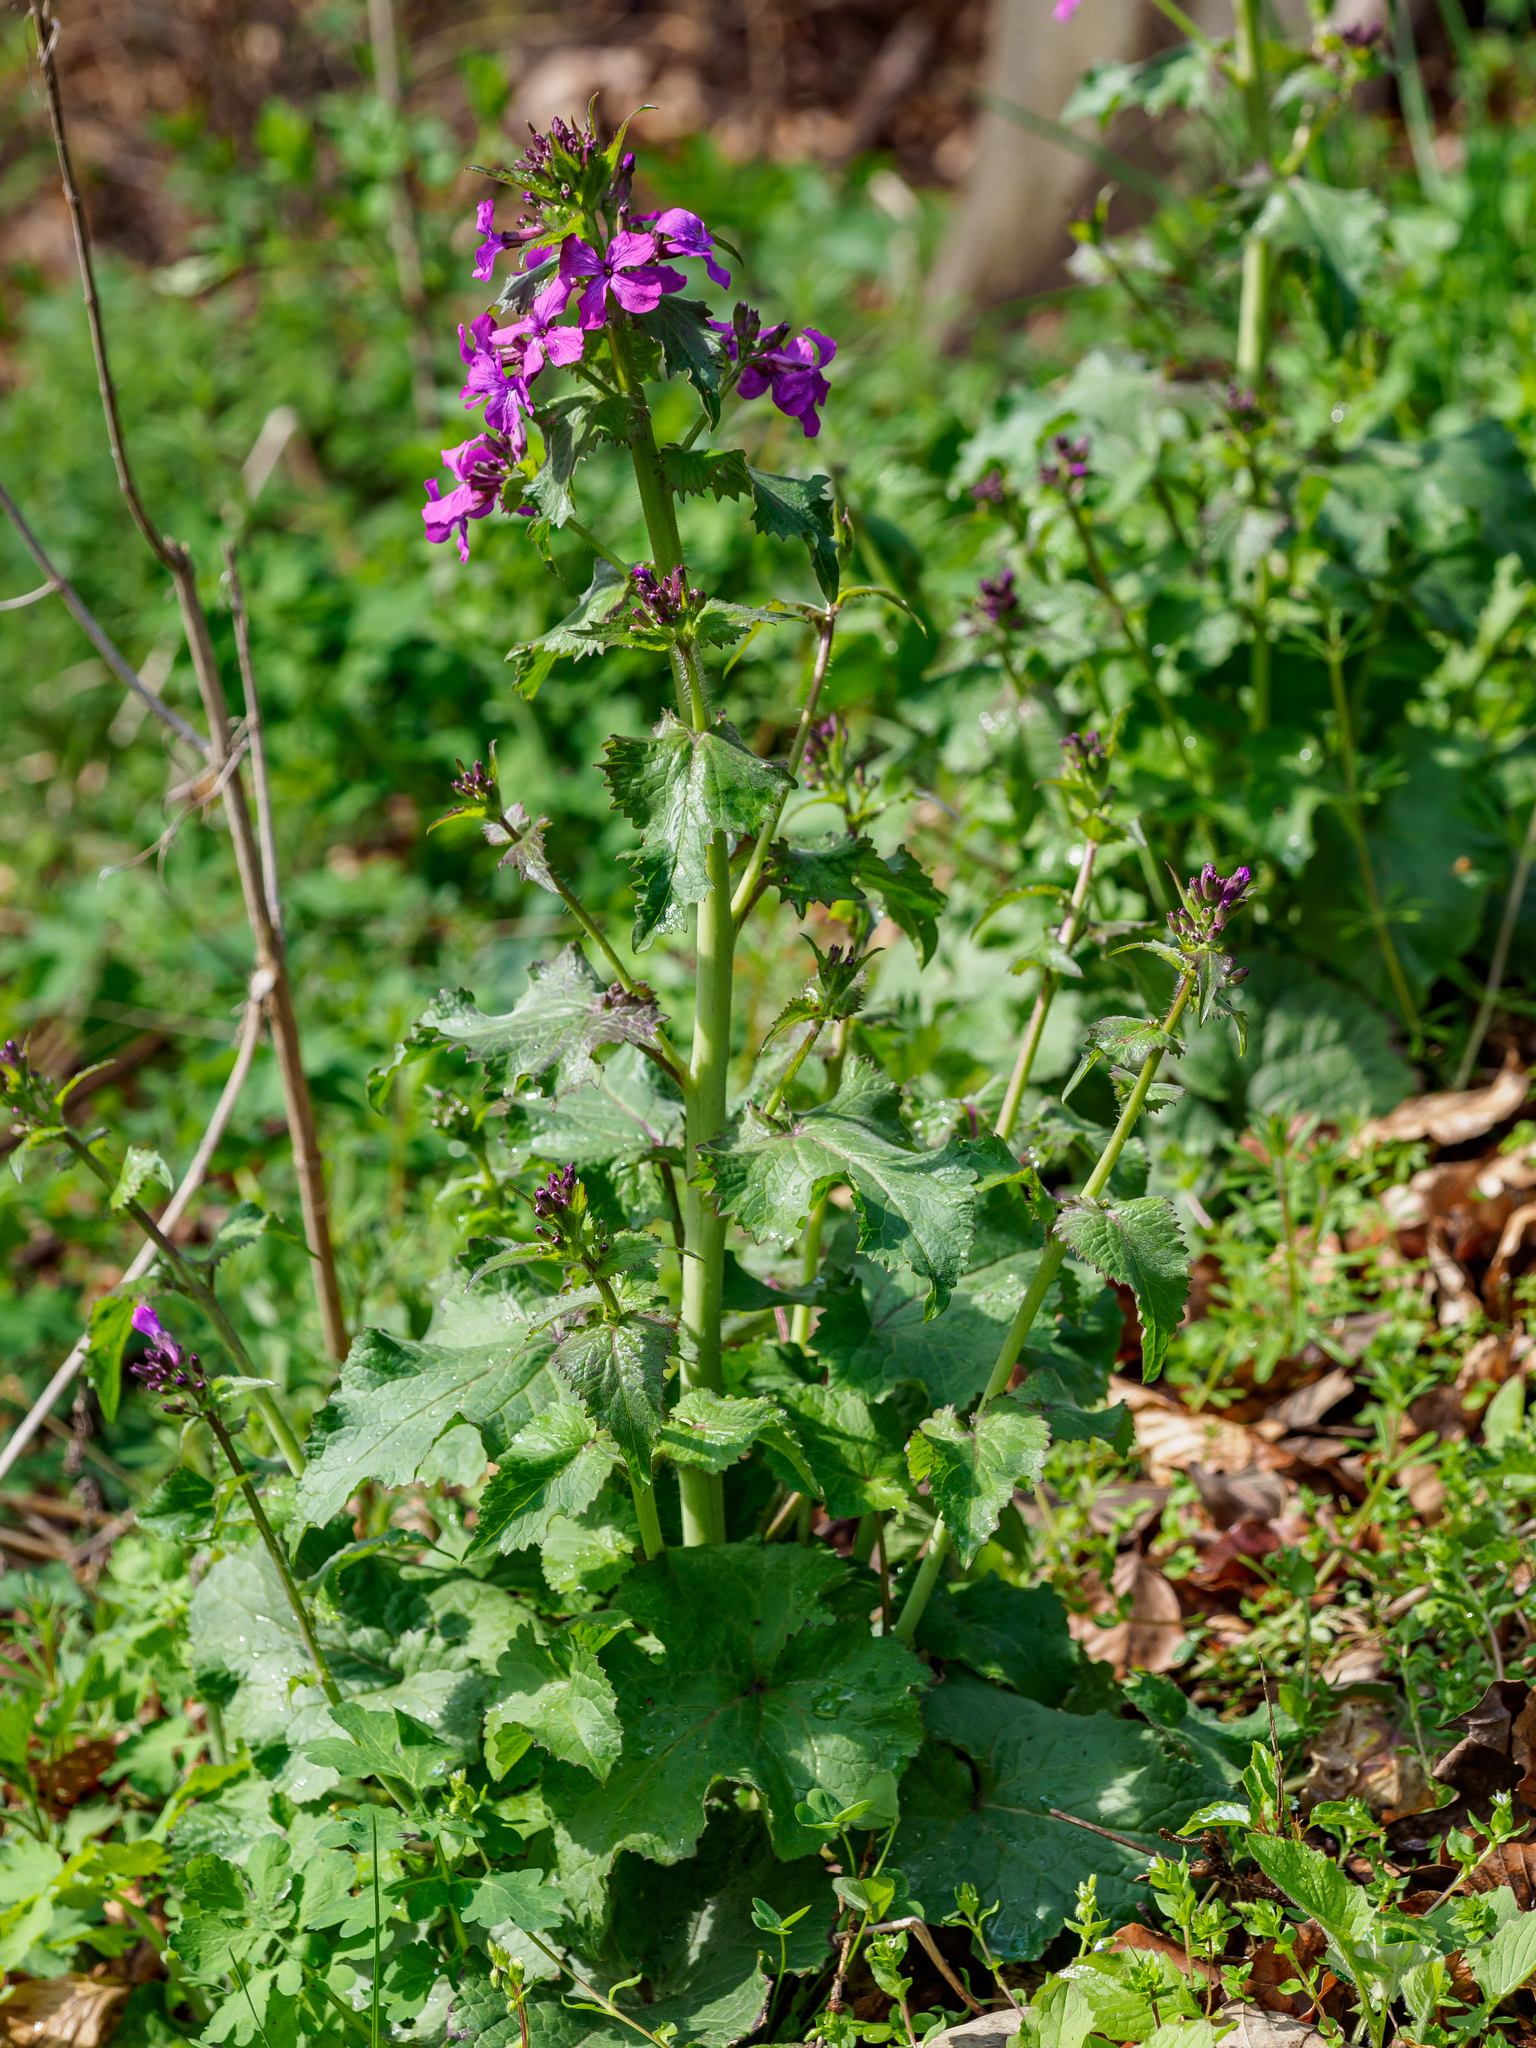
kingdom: Plantae
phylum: Tracheophyta
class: Magnoliopsida
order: Brassicales
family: Brassicaceae
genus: Lunaria
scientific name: Lunaria annua
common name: Honesty
